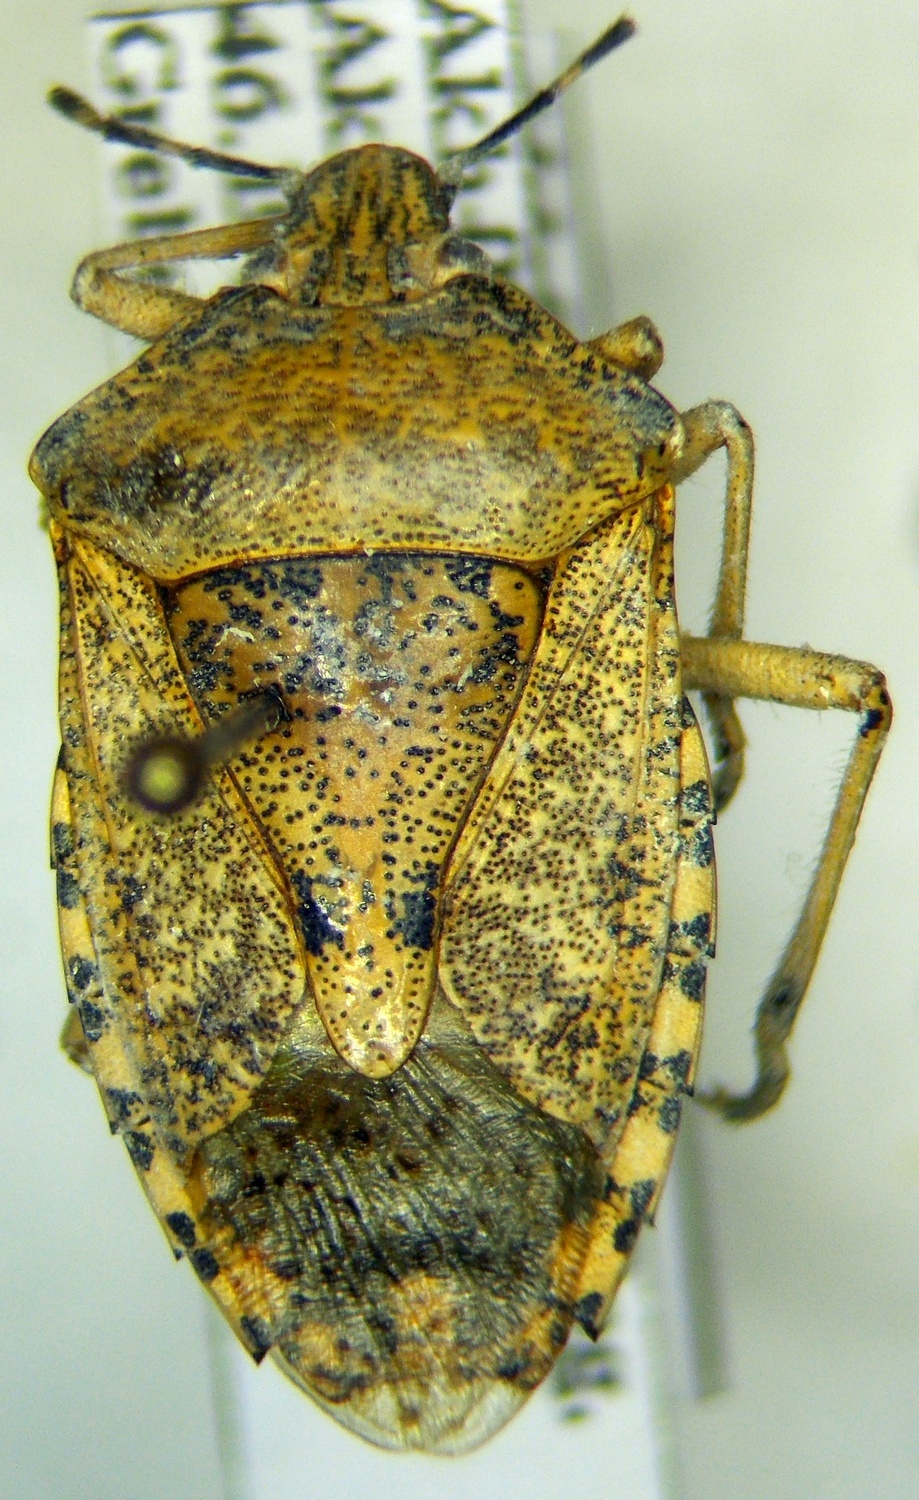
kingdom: Animalia
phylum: Arthropoda
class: Insecta
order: Hemiptera
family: Pentatomidae
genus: Rhaphigaster
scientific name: Rhaphigaster nebulosa
